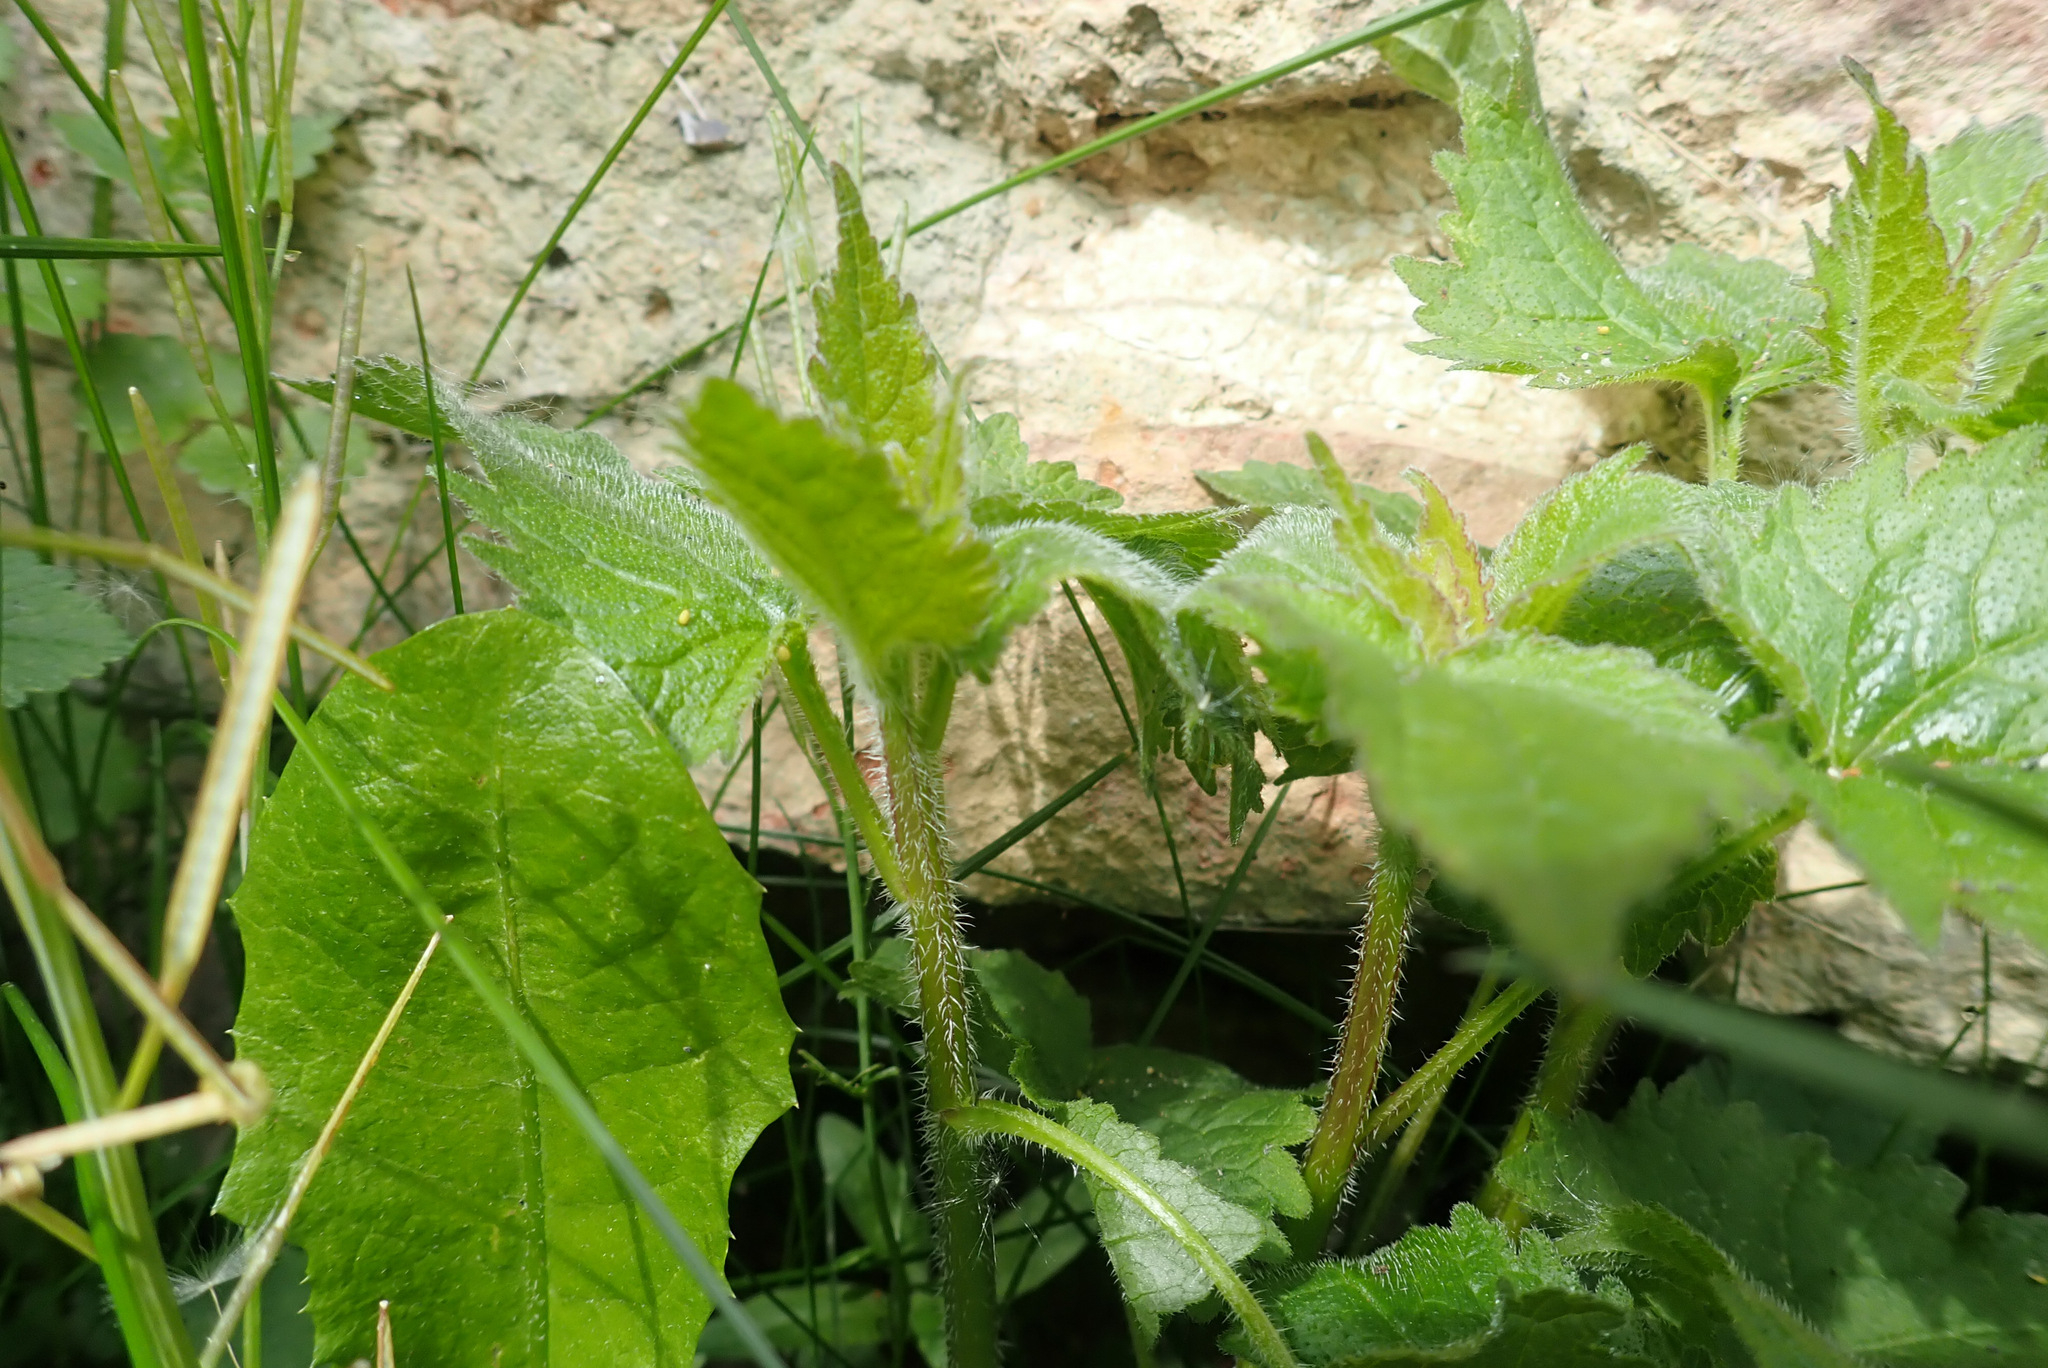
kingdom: Plantae
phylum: Tracheophyta
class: Magnoliopsida
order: Asterales
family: Campanulaceae
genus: Campanula
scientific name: Campanula trachelium
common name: Nettle-leaved bellflower
